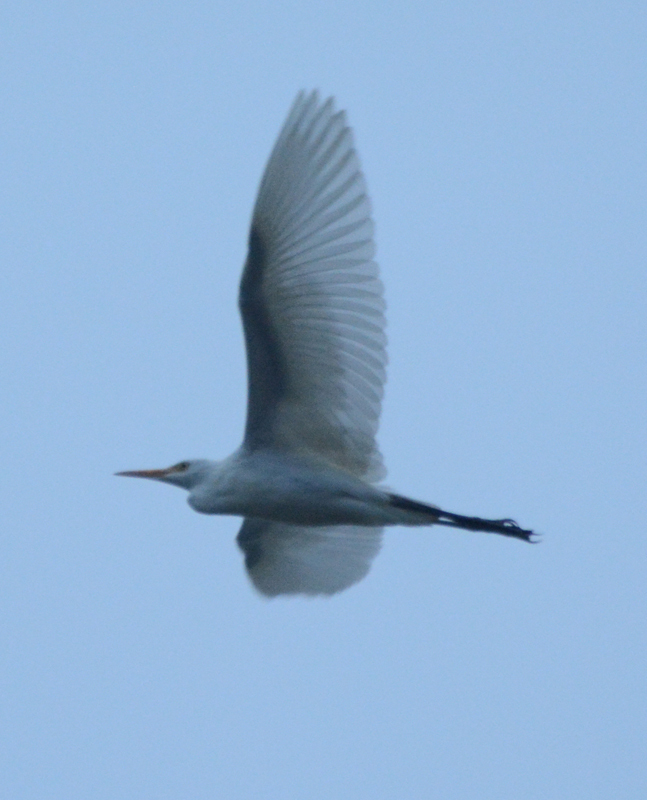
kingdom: Animalia
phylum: Chordata
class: Aves
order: Pelecaniformes
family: Ardeidae
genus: Ardea
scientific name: Ardea alba
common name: Great egret
